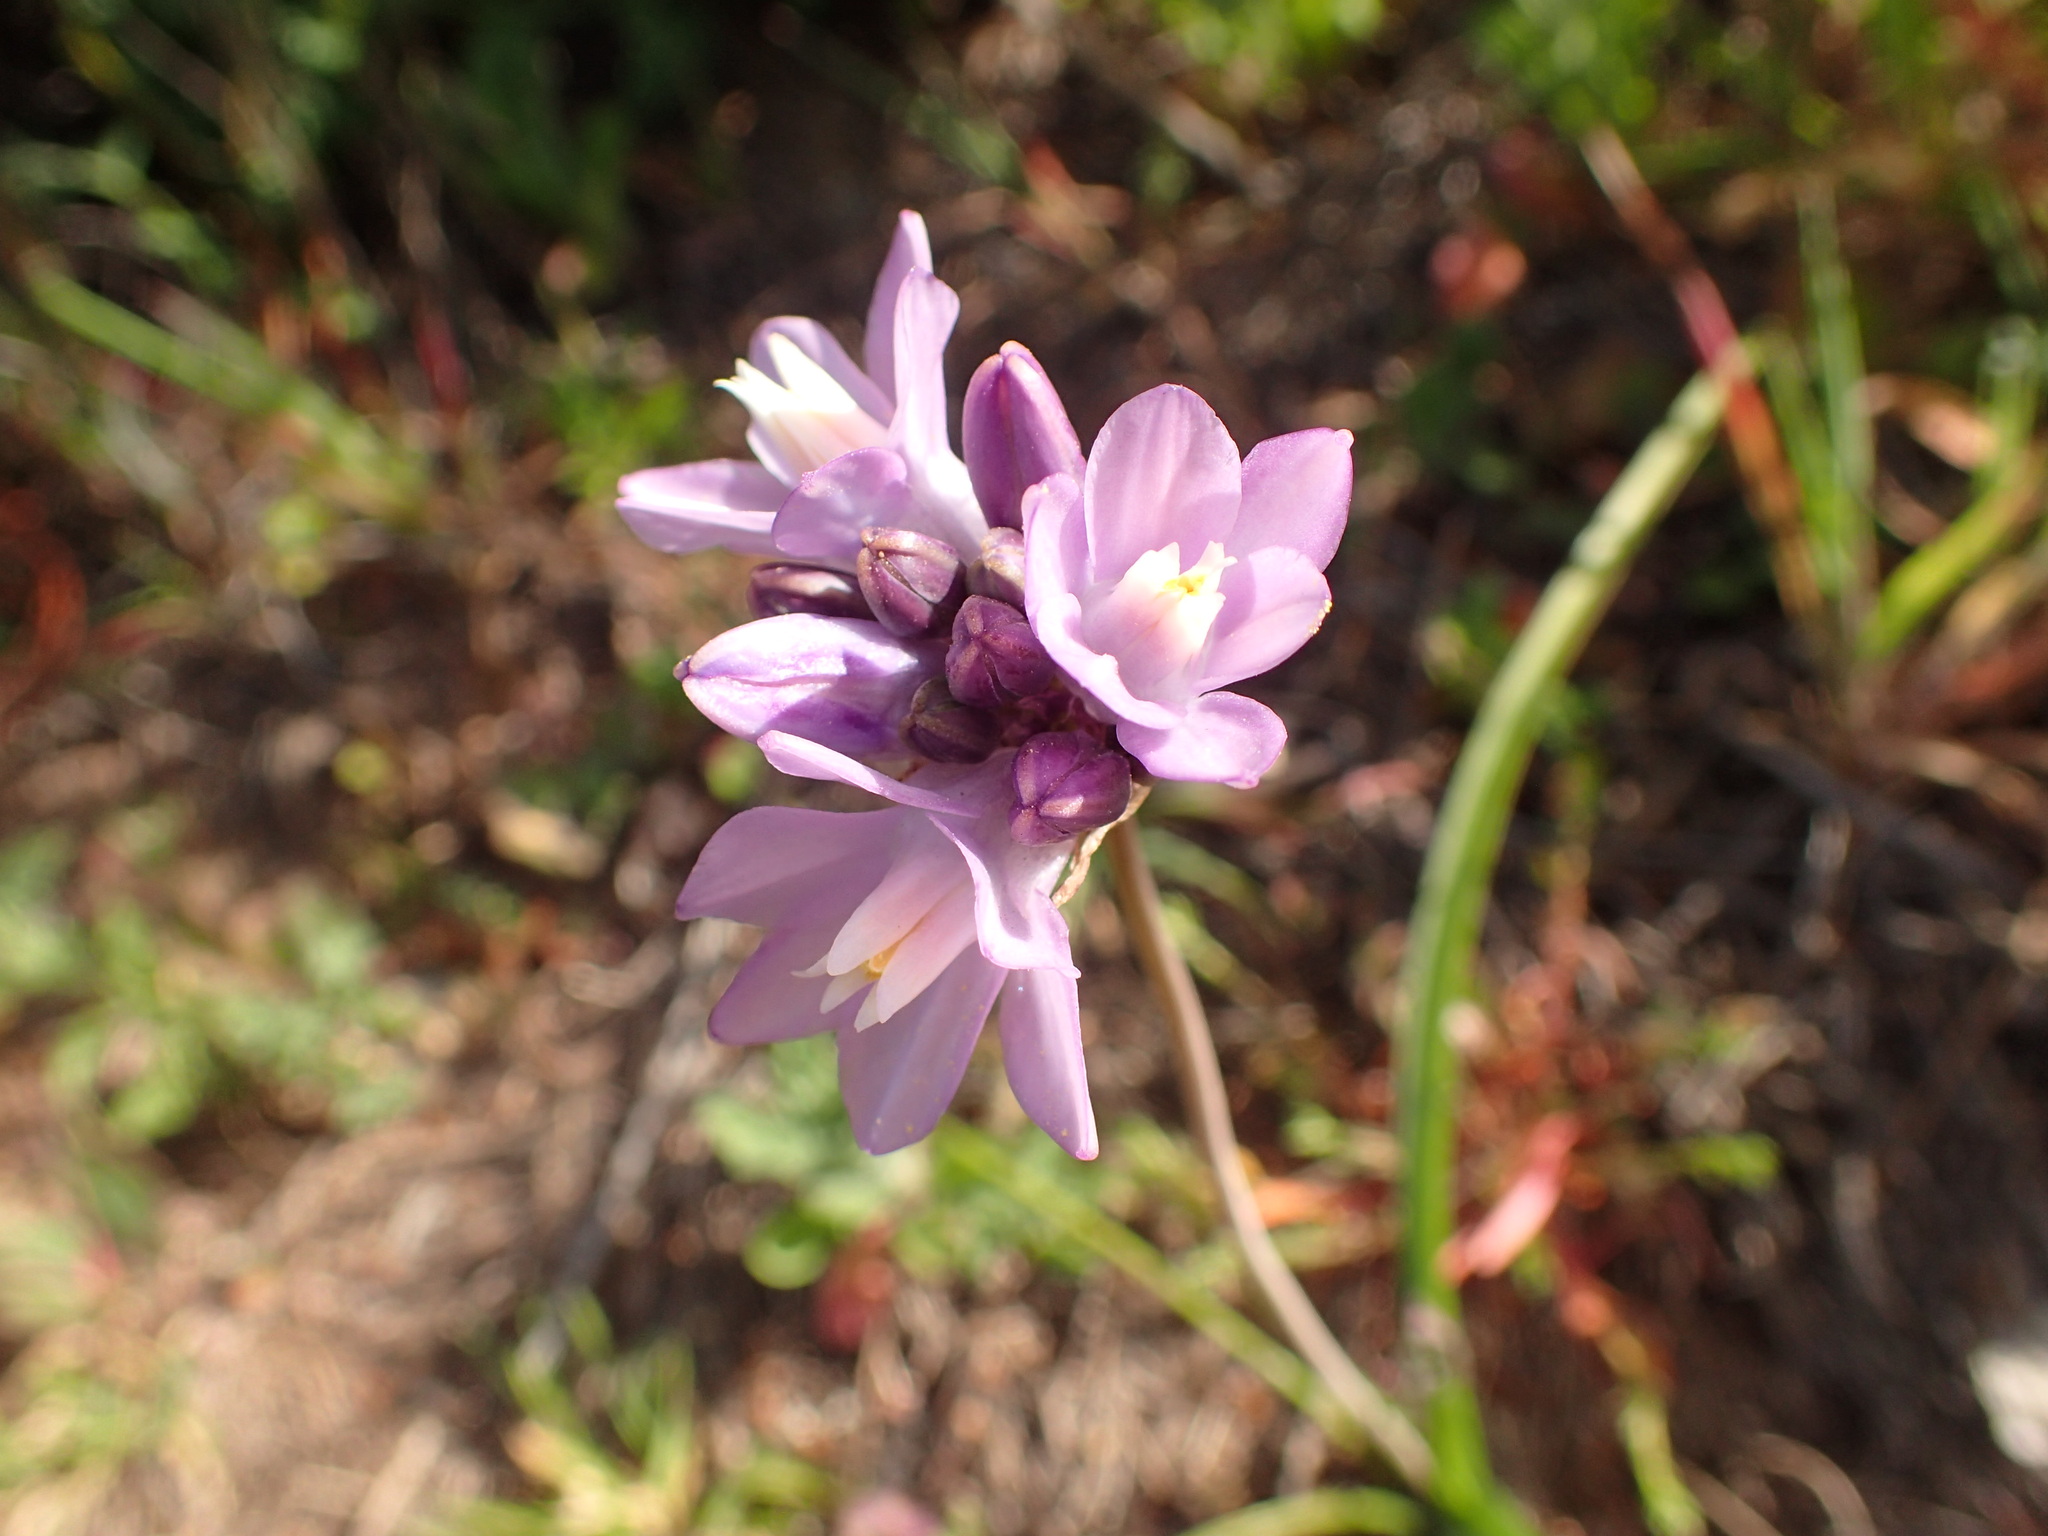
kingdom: Plantae
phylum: Tracheophyta
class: Liliopsida
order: Asparagales
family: Asparagaceae
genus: Dipterostemon
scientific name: Dipterostemon capitatus
